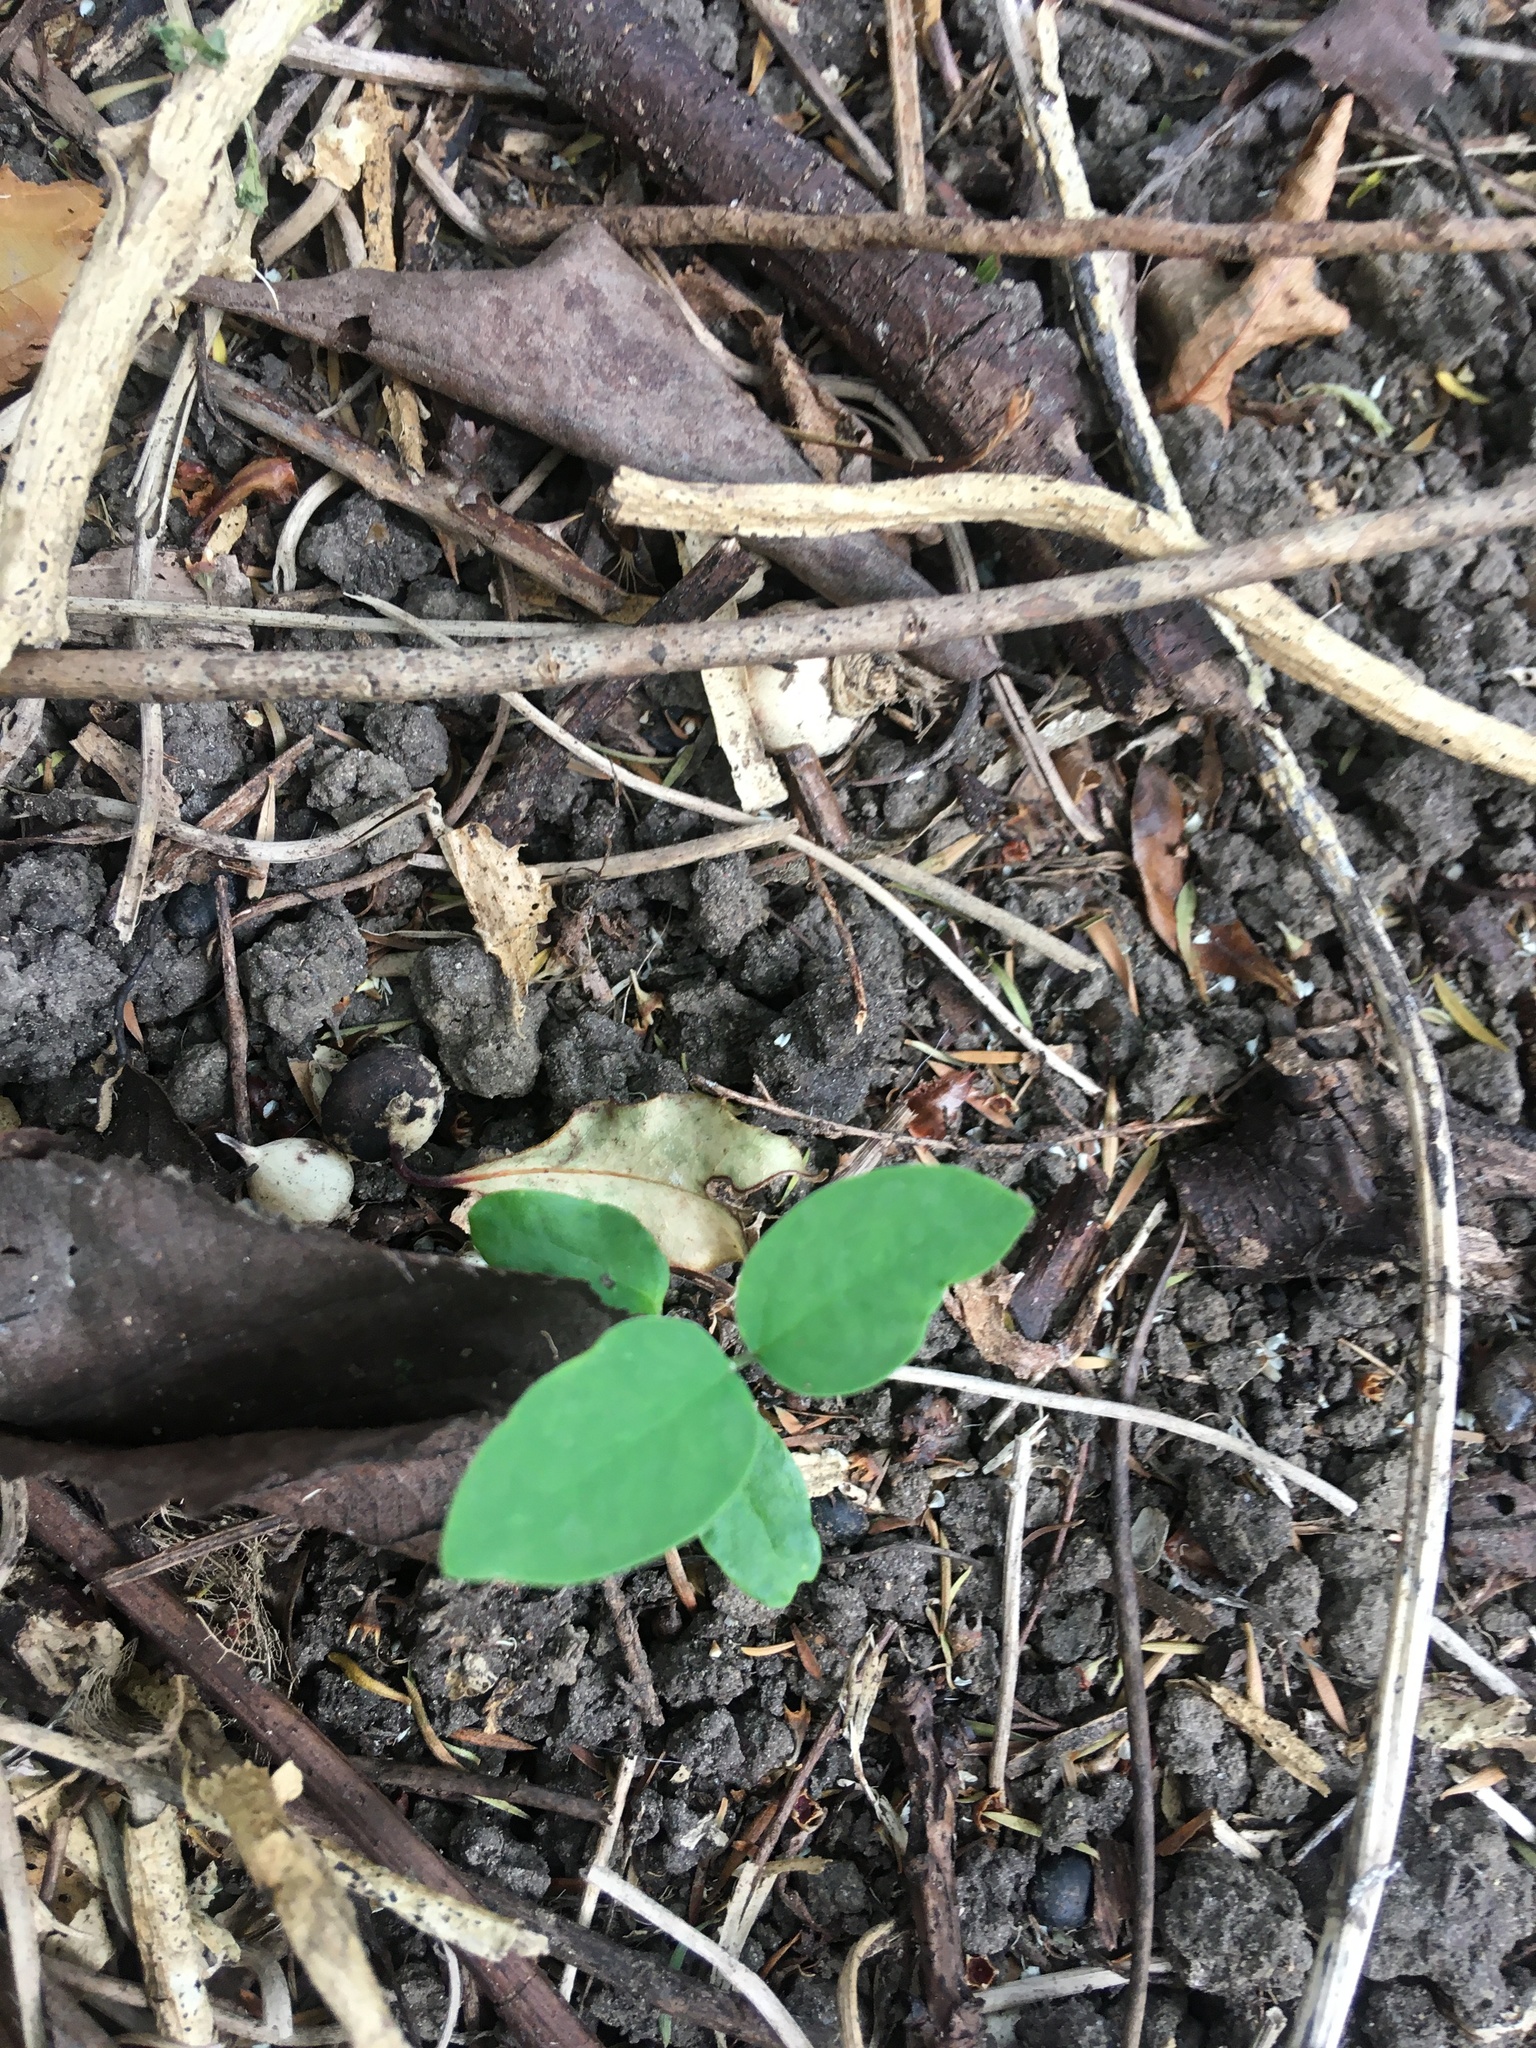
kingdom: Plantae
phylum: Tracheophyta
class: Magnoliopsida
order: Gentianales
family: Apocynaceae
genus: Araujia
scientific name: Araujia sericifera
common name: White bladderflower
